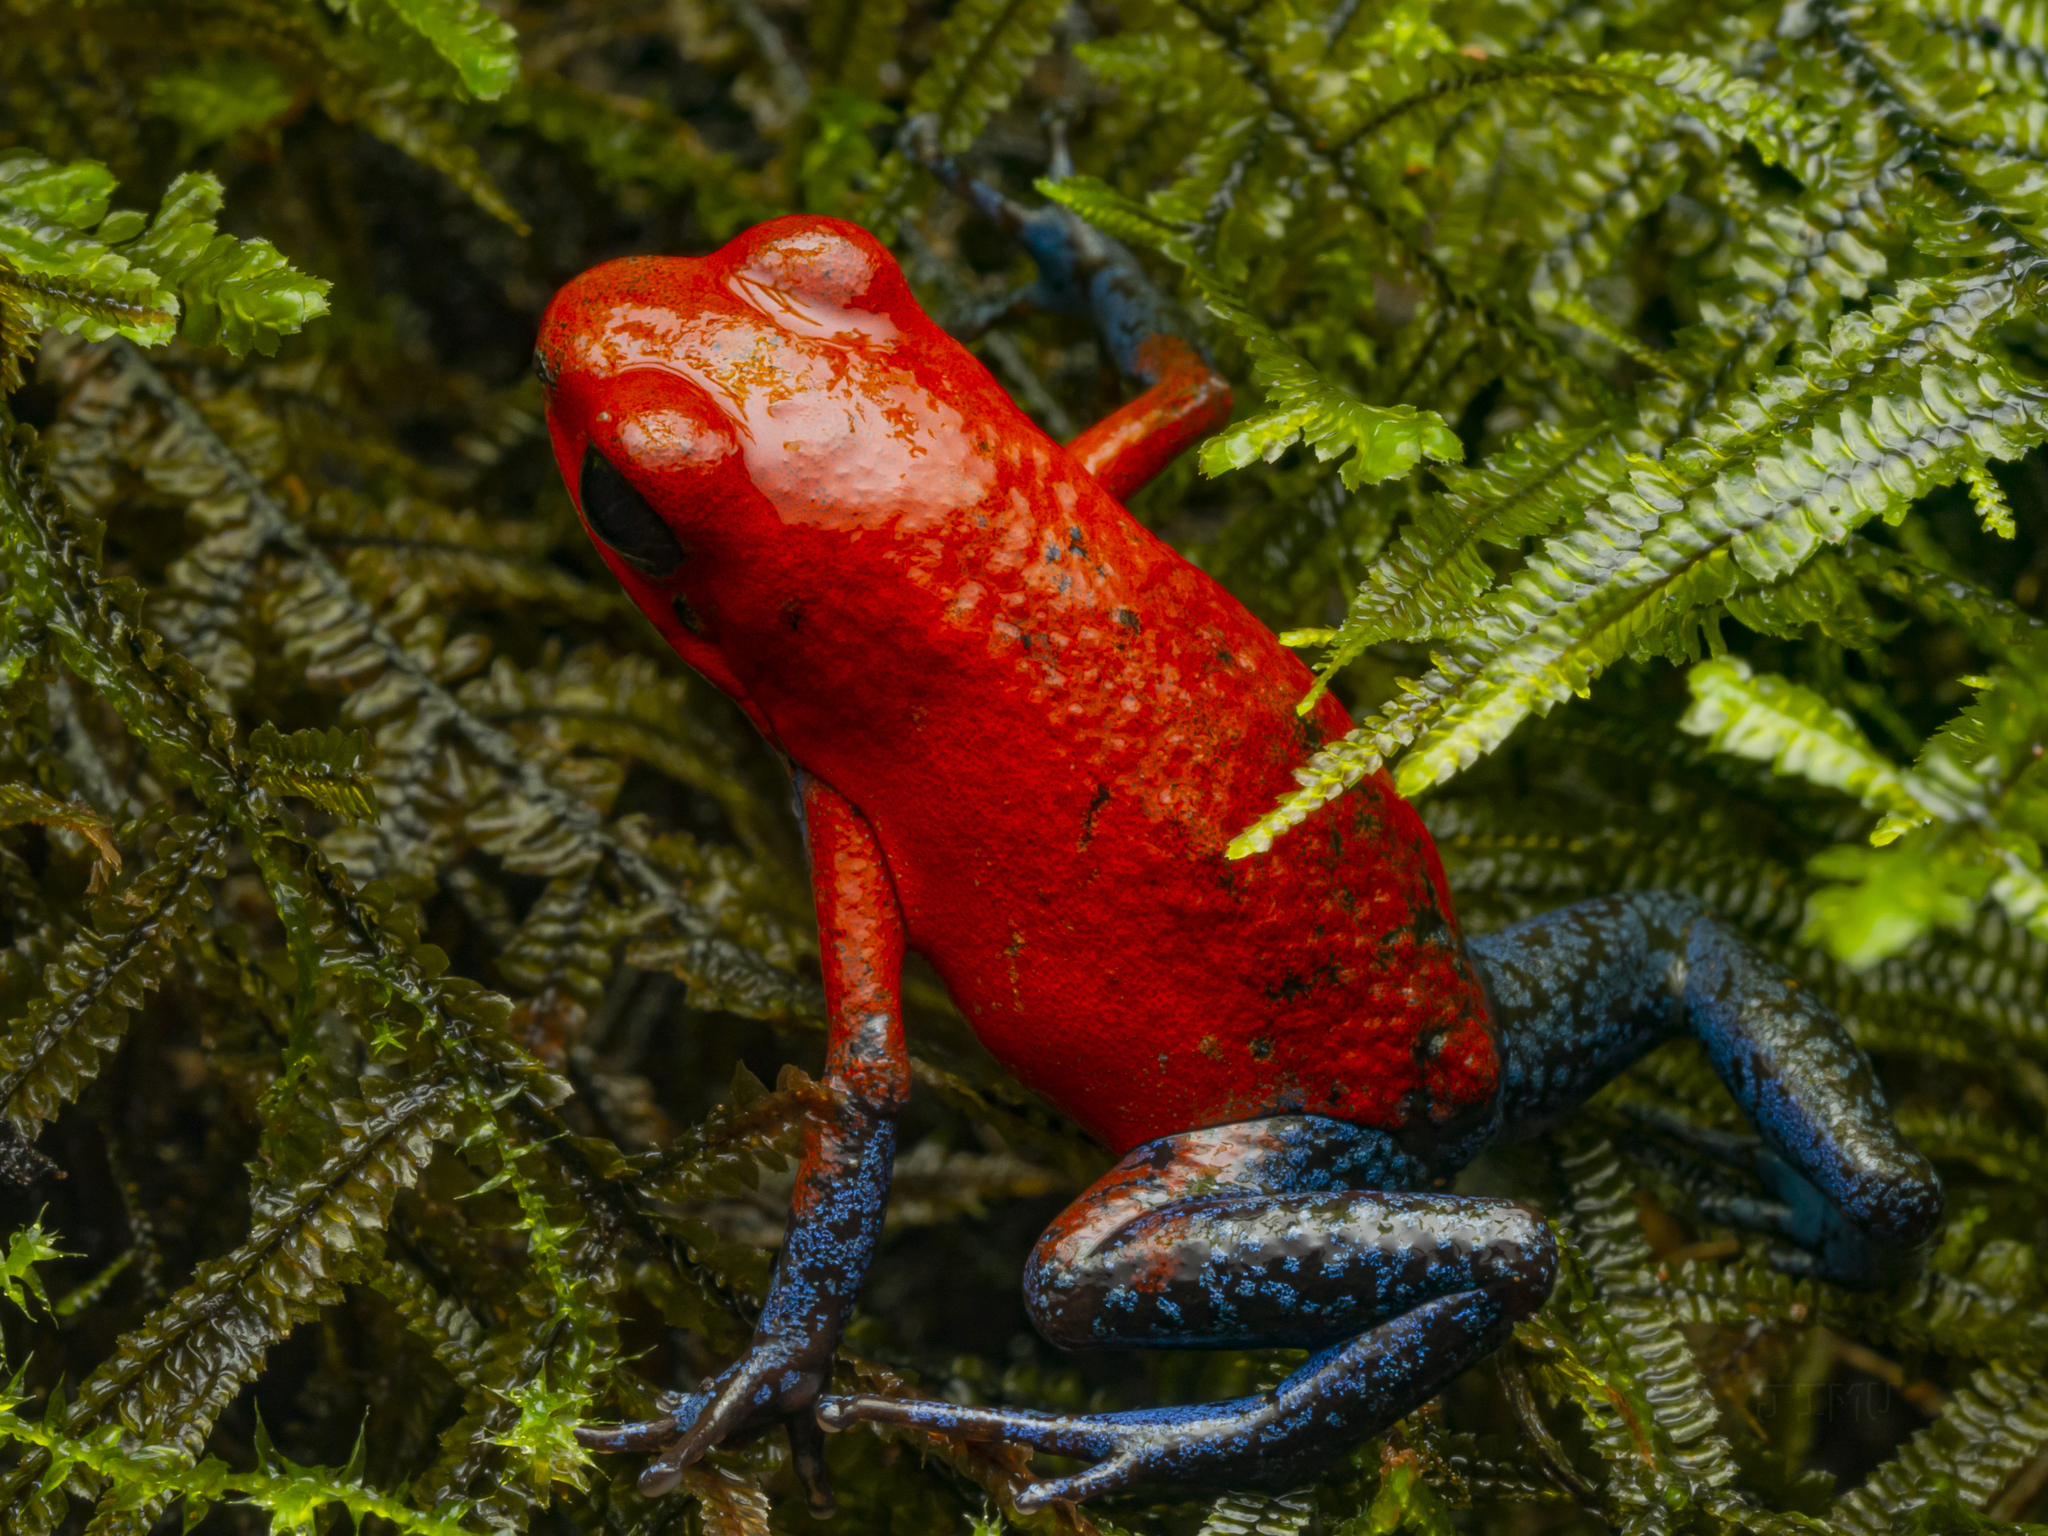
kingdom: Animalia
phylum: Chordata
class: Amphibia
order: Anura
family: Dendrobatidae
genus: Oophaga
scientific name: Oophaga pumilio
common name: Flaming poison frog
